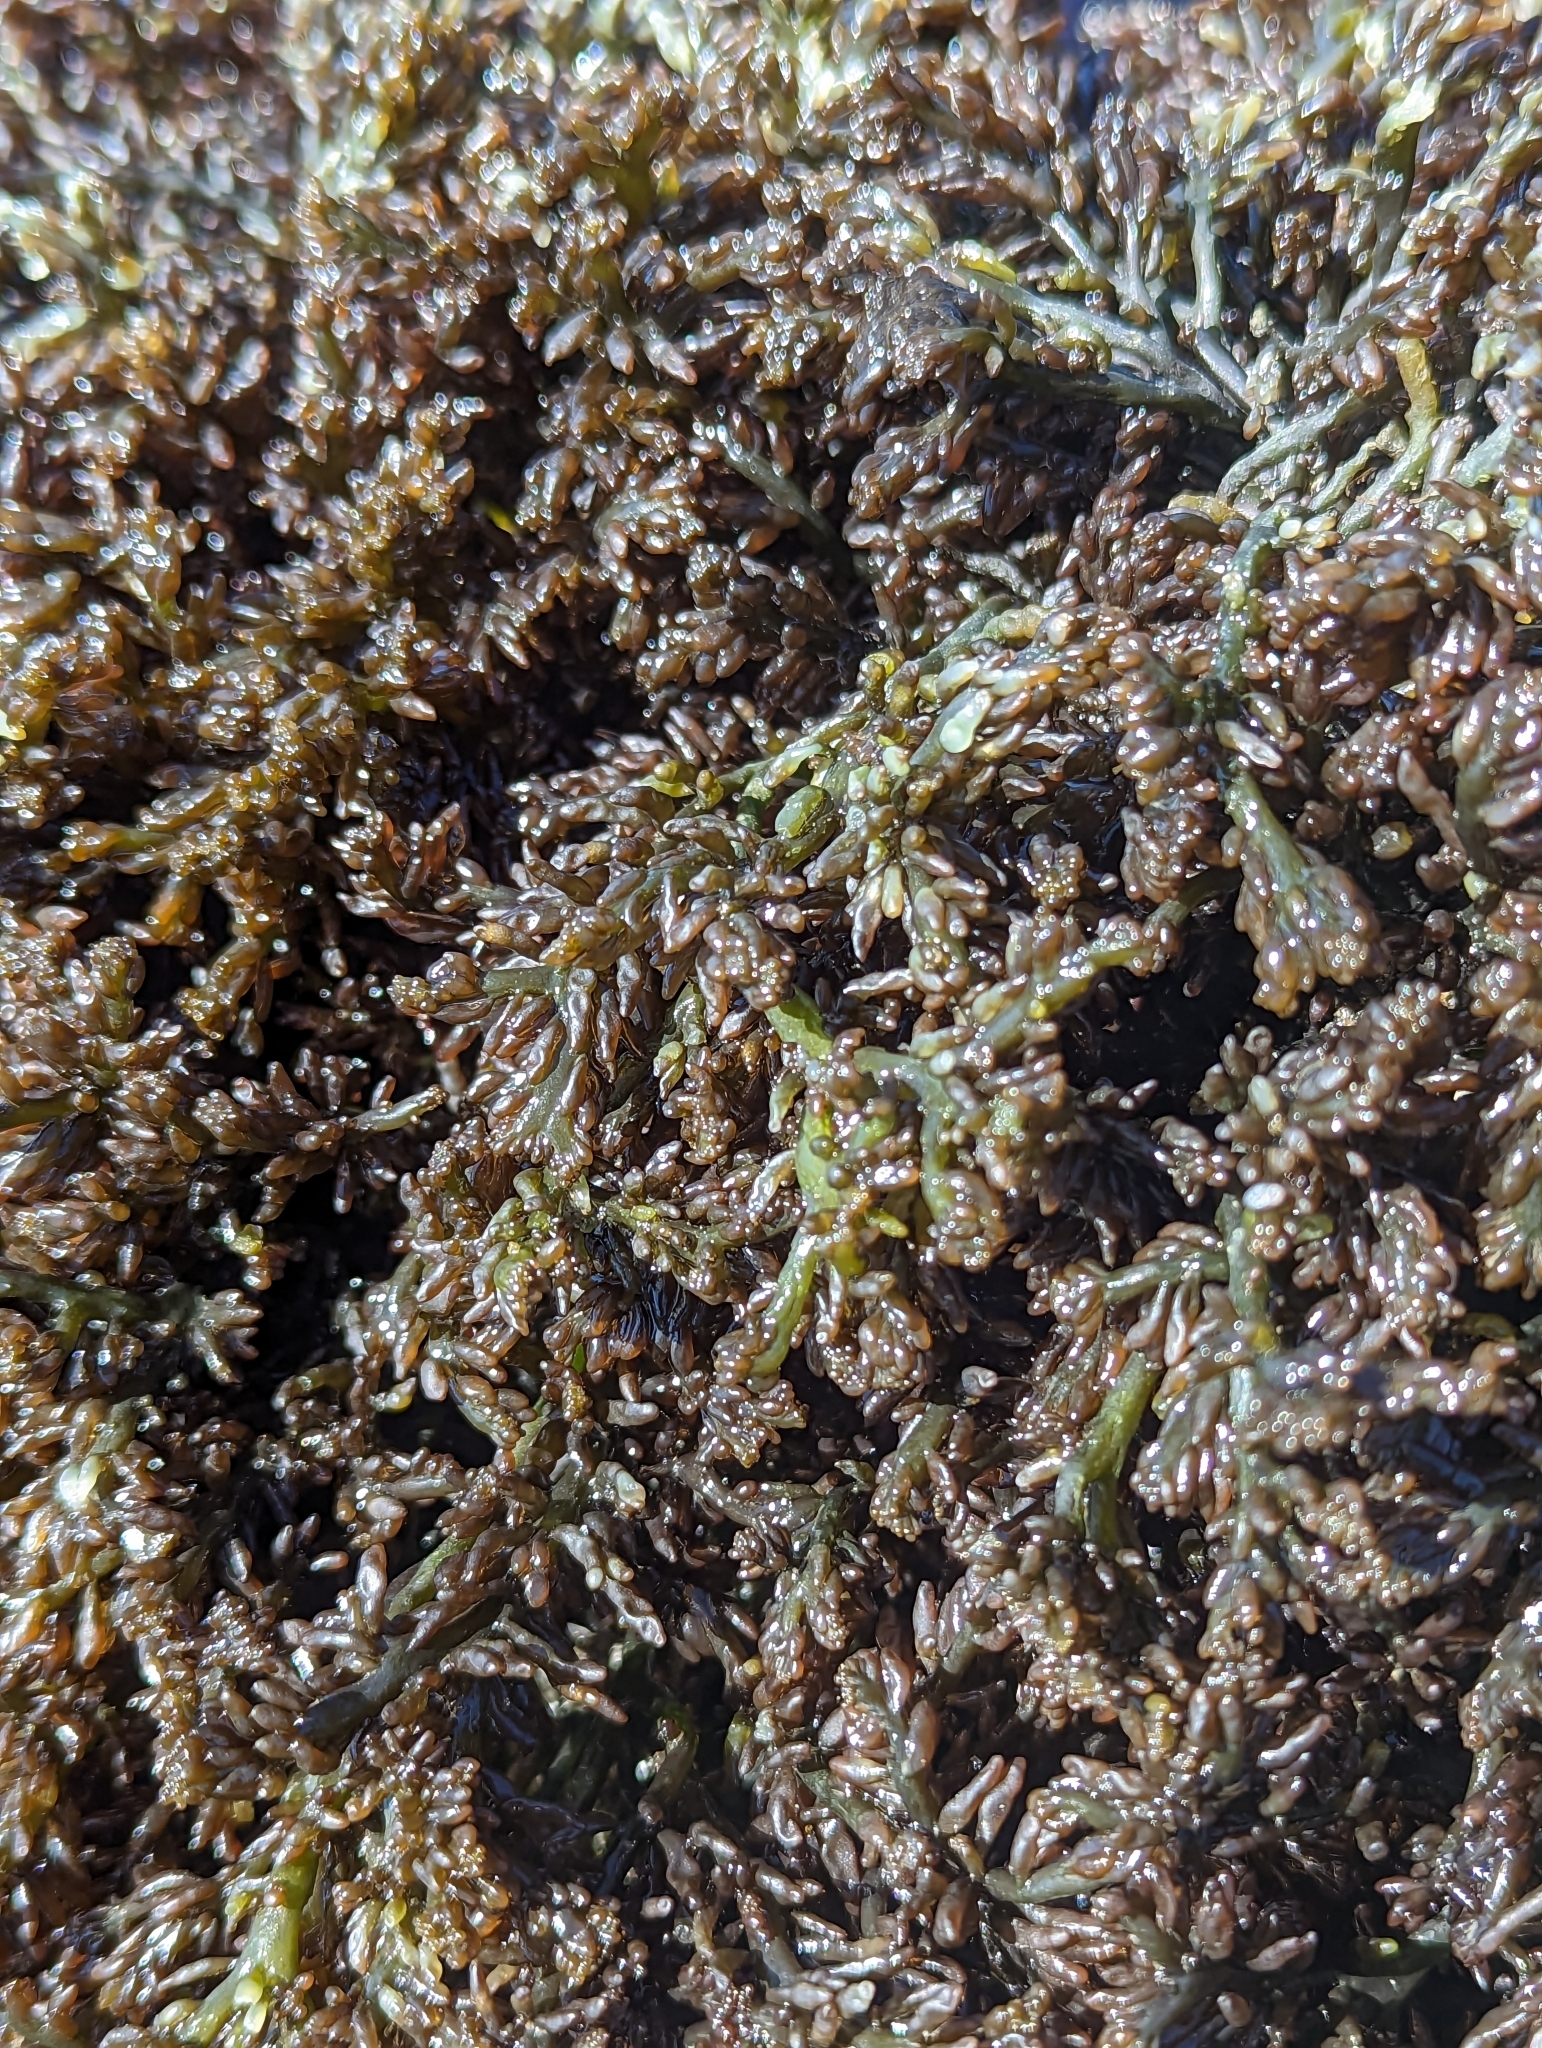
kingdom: Plantae
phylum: Rhodophyta
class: Florideophyceae
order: Rhodymeniales
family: Champiaceae
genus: Neogastroclonium
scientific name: Neogastroclonium subarticulatum
